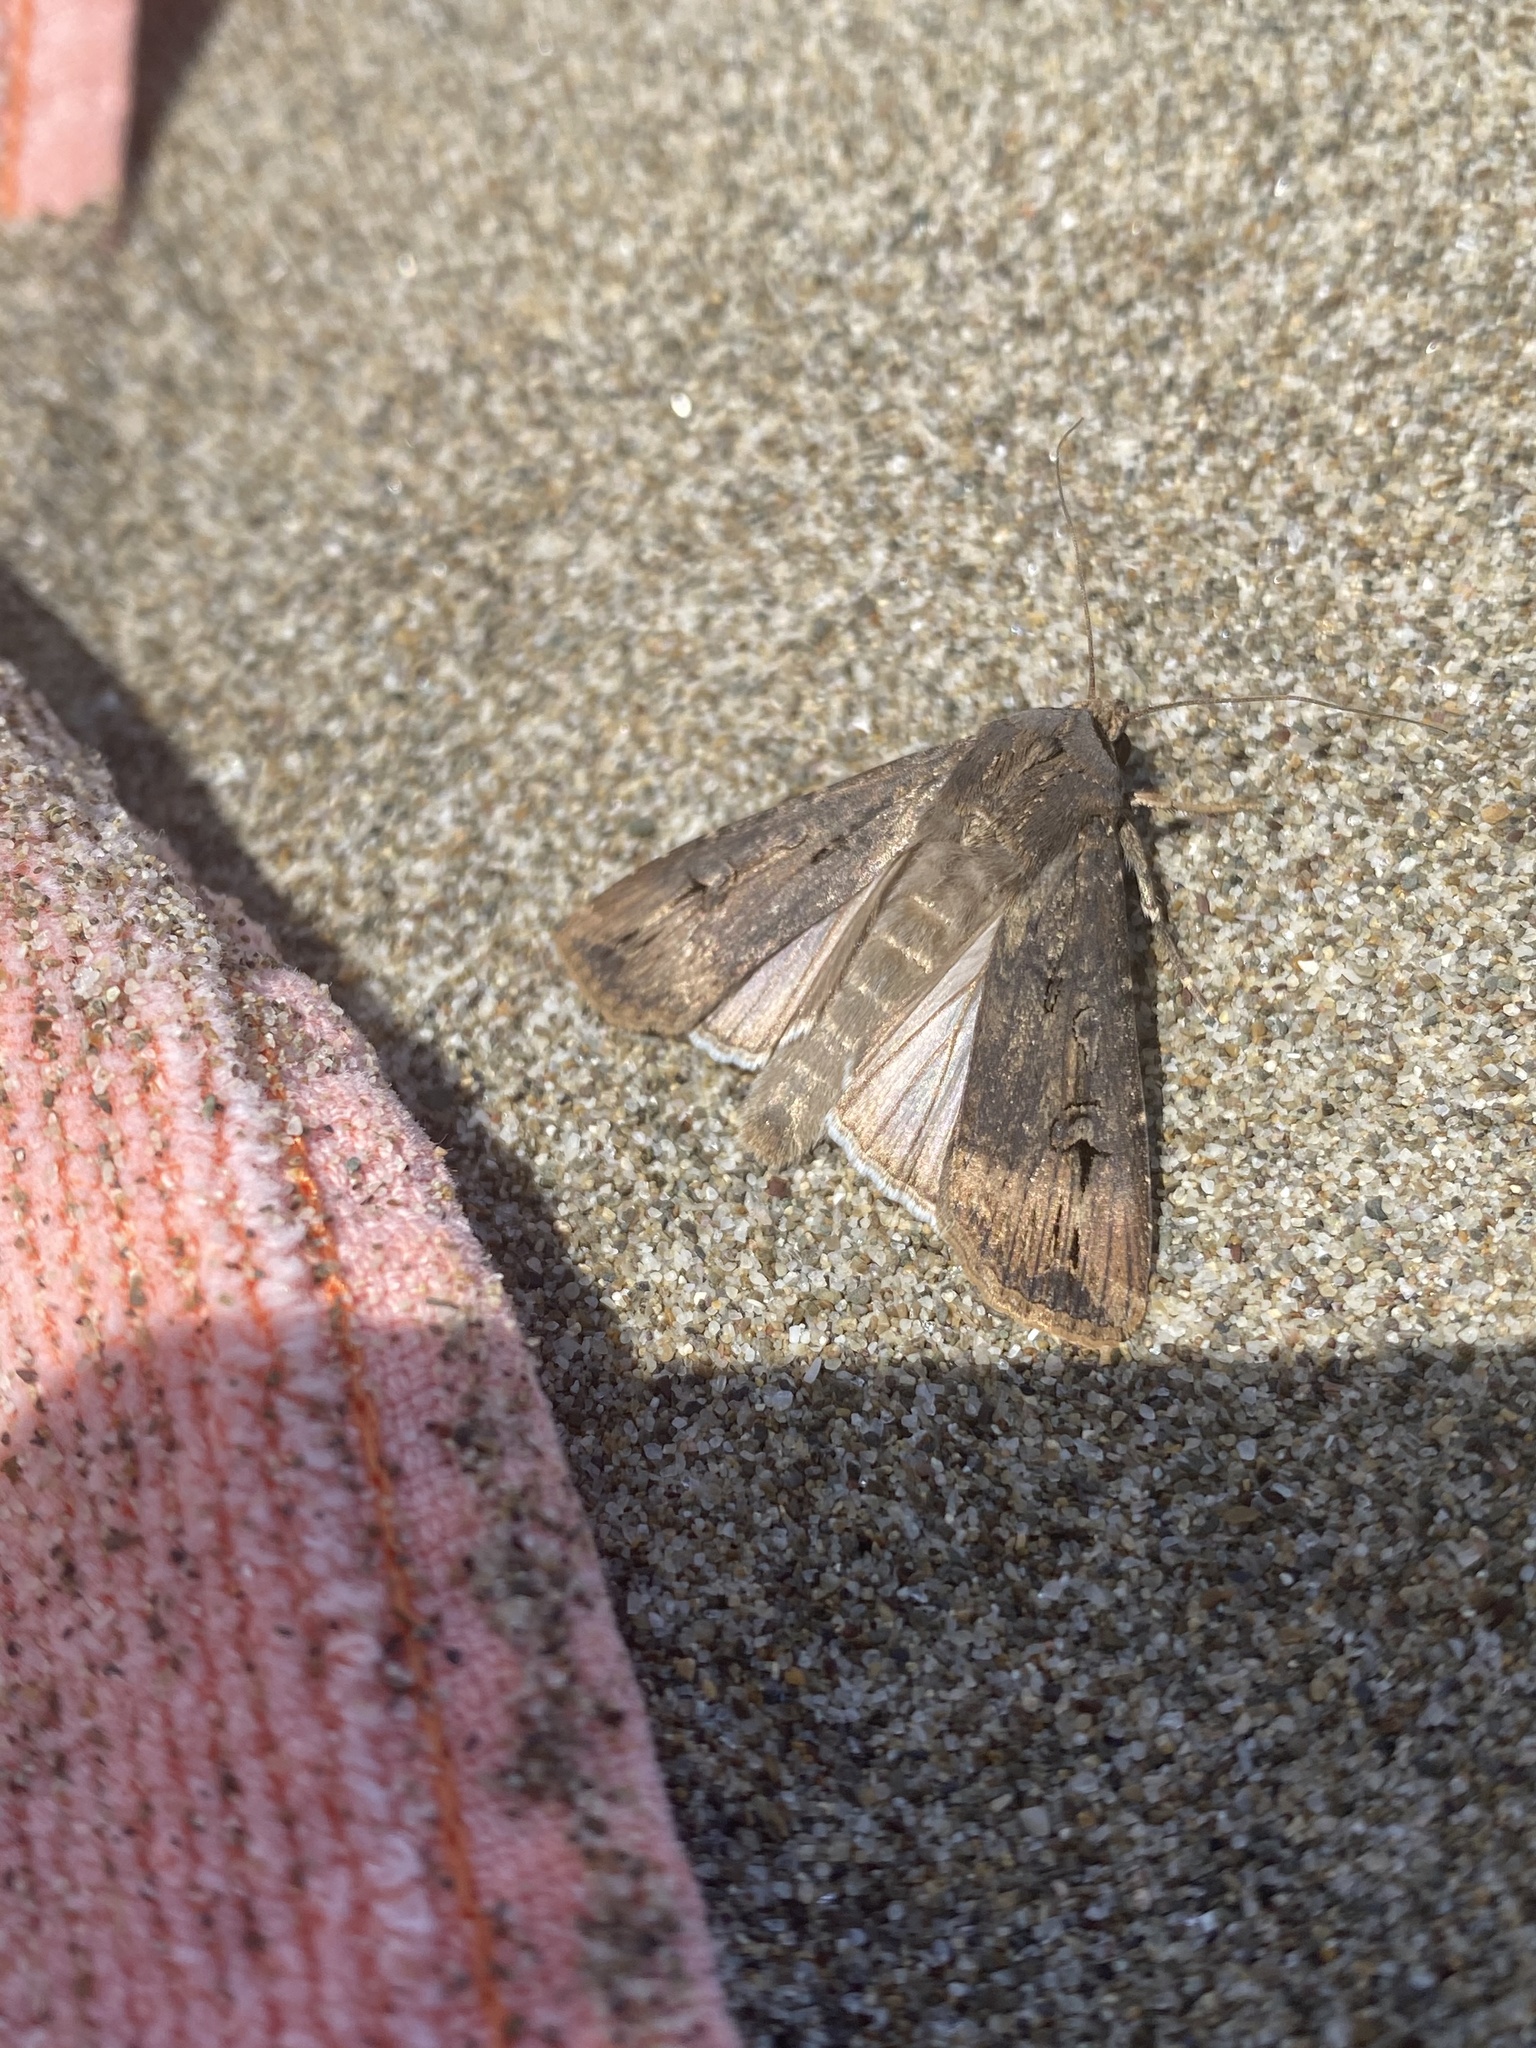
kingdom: Animalia
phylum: Arthropoda
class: Insecta
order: Lepidoptera
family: Noctuidae
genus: Agrotis
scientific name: Agrotis ipsilon
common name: Dark sword-grass
